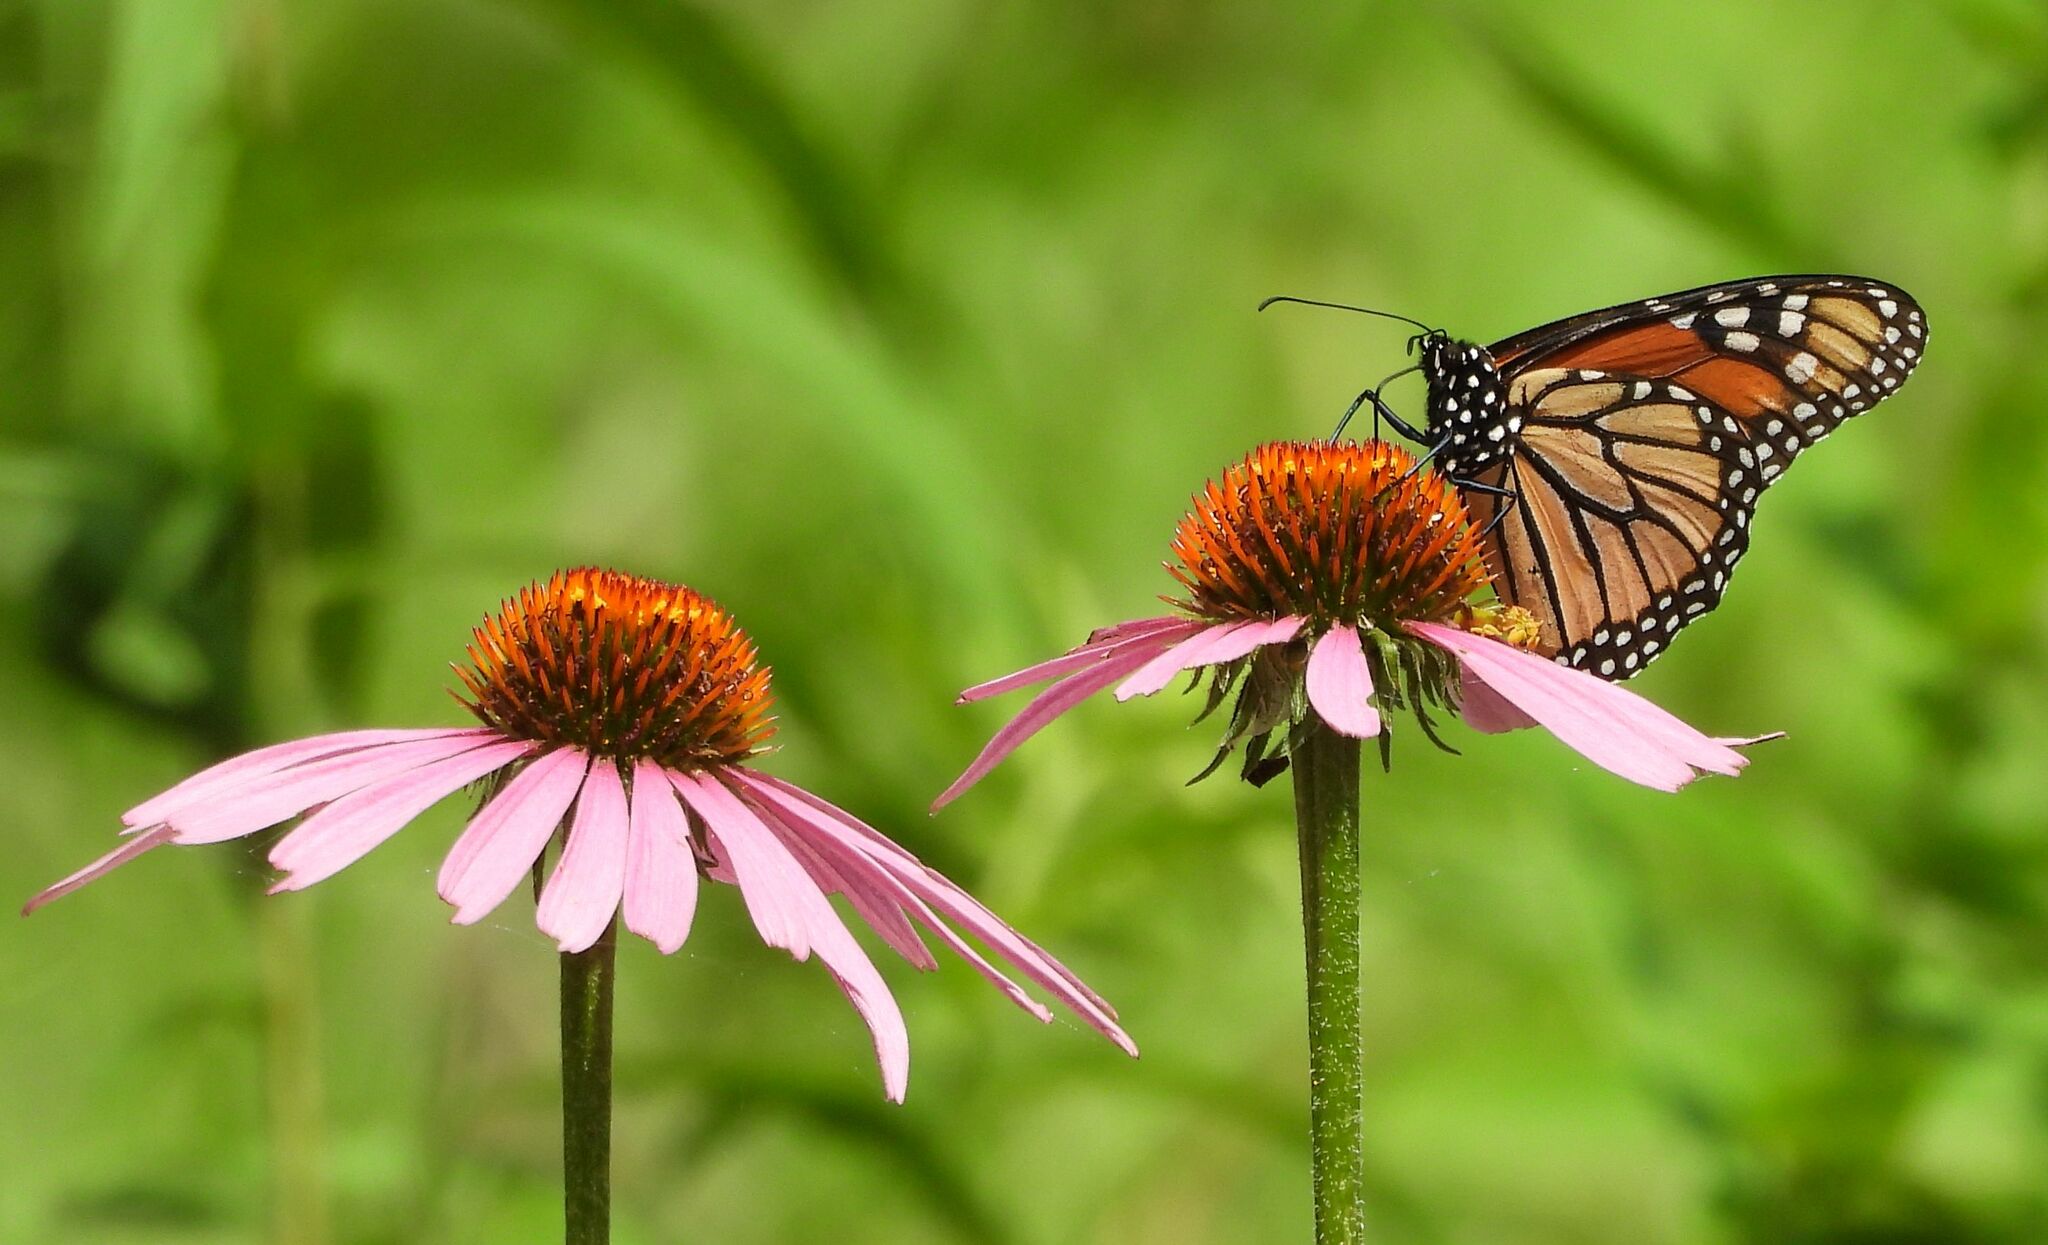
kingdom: Plantae
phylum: Tracheophyta
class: Magnoliopsida
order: Asterales
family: Asteraceae
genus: Echinacea
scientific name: Echinacea purpurea
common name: Broad-leaved purple coneflower
